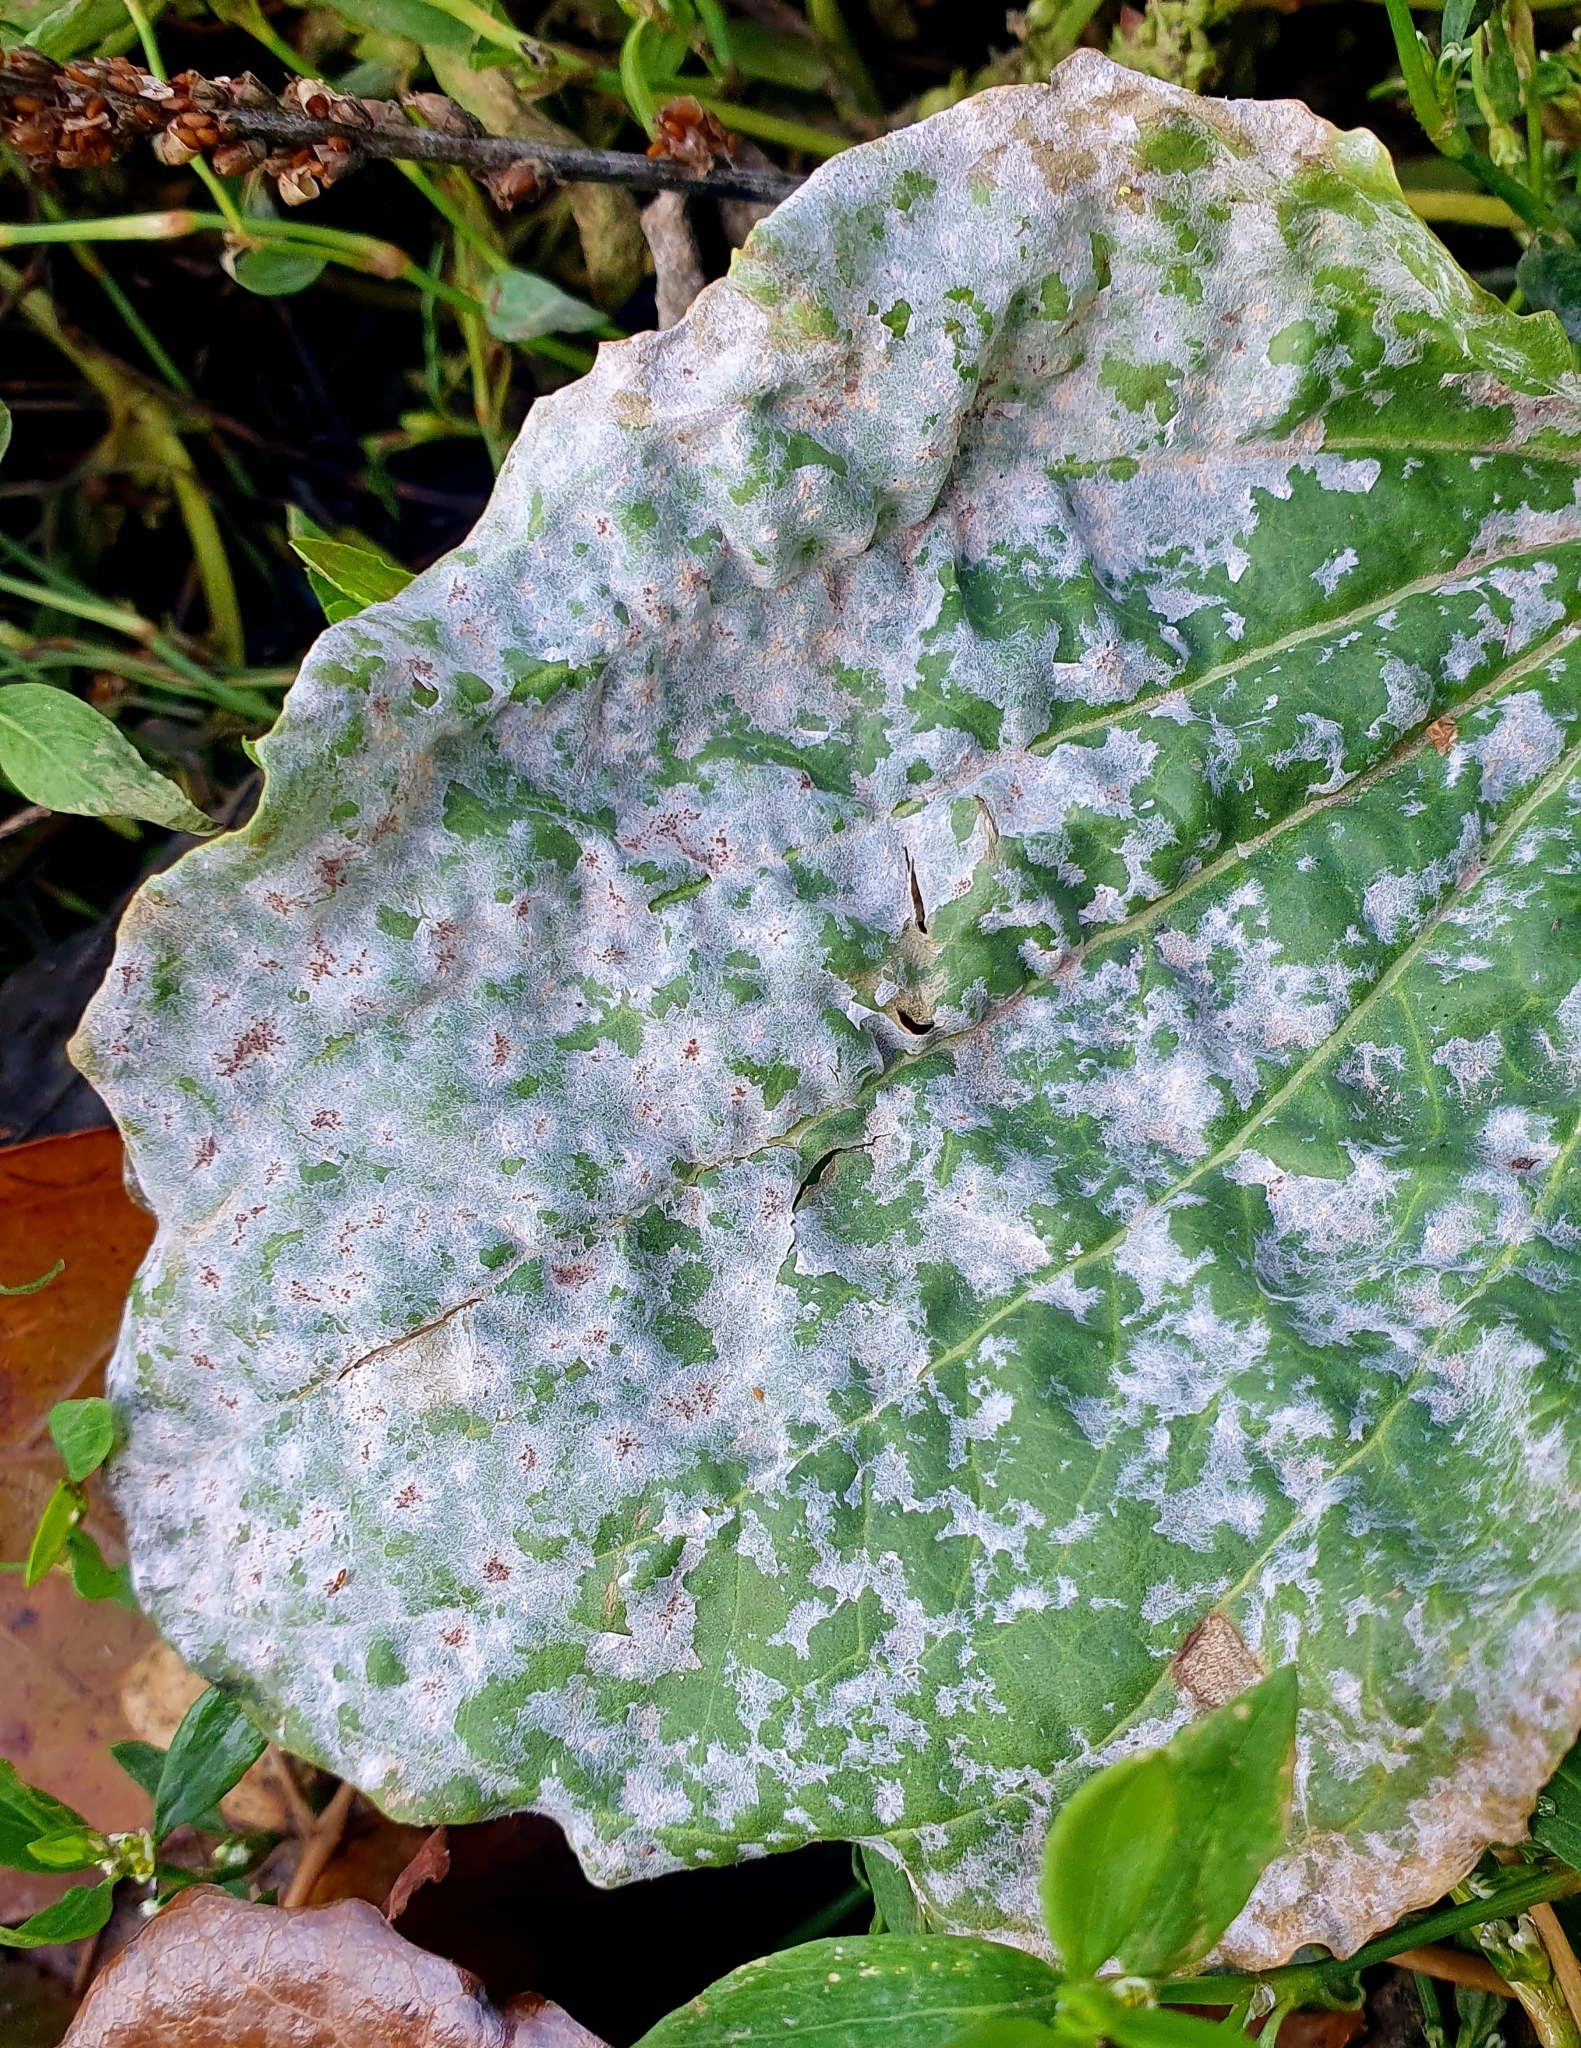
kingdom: Fungi
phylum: Ascomycota
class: Leotiomycetes
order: Helotiales
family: Erysiphaceae
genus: Golovinomyces
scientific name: Golovinomyces sordidus
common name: Plantain mildew
